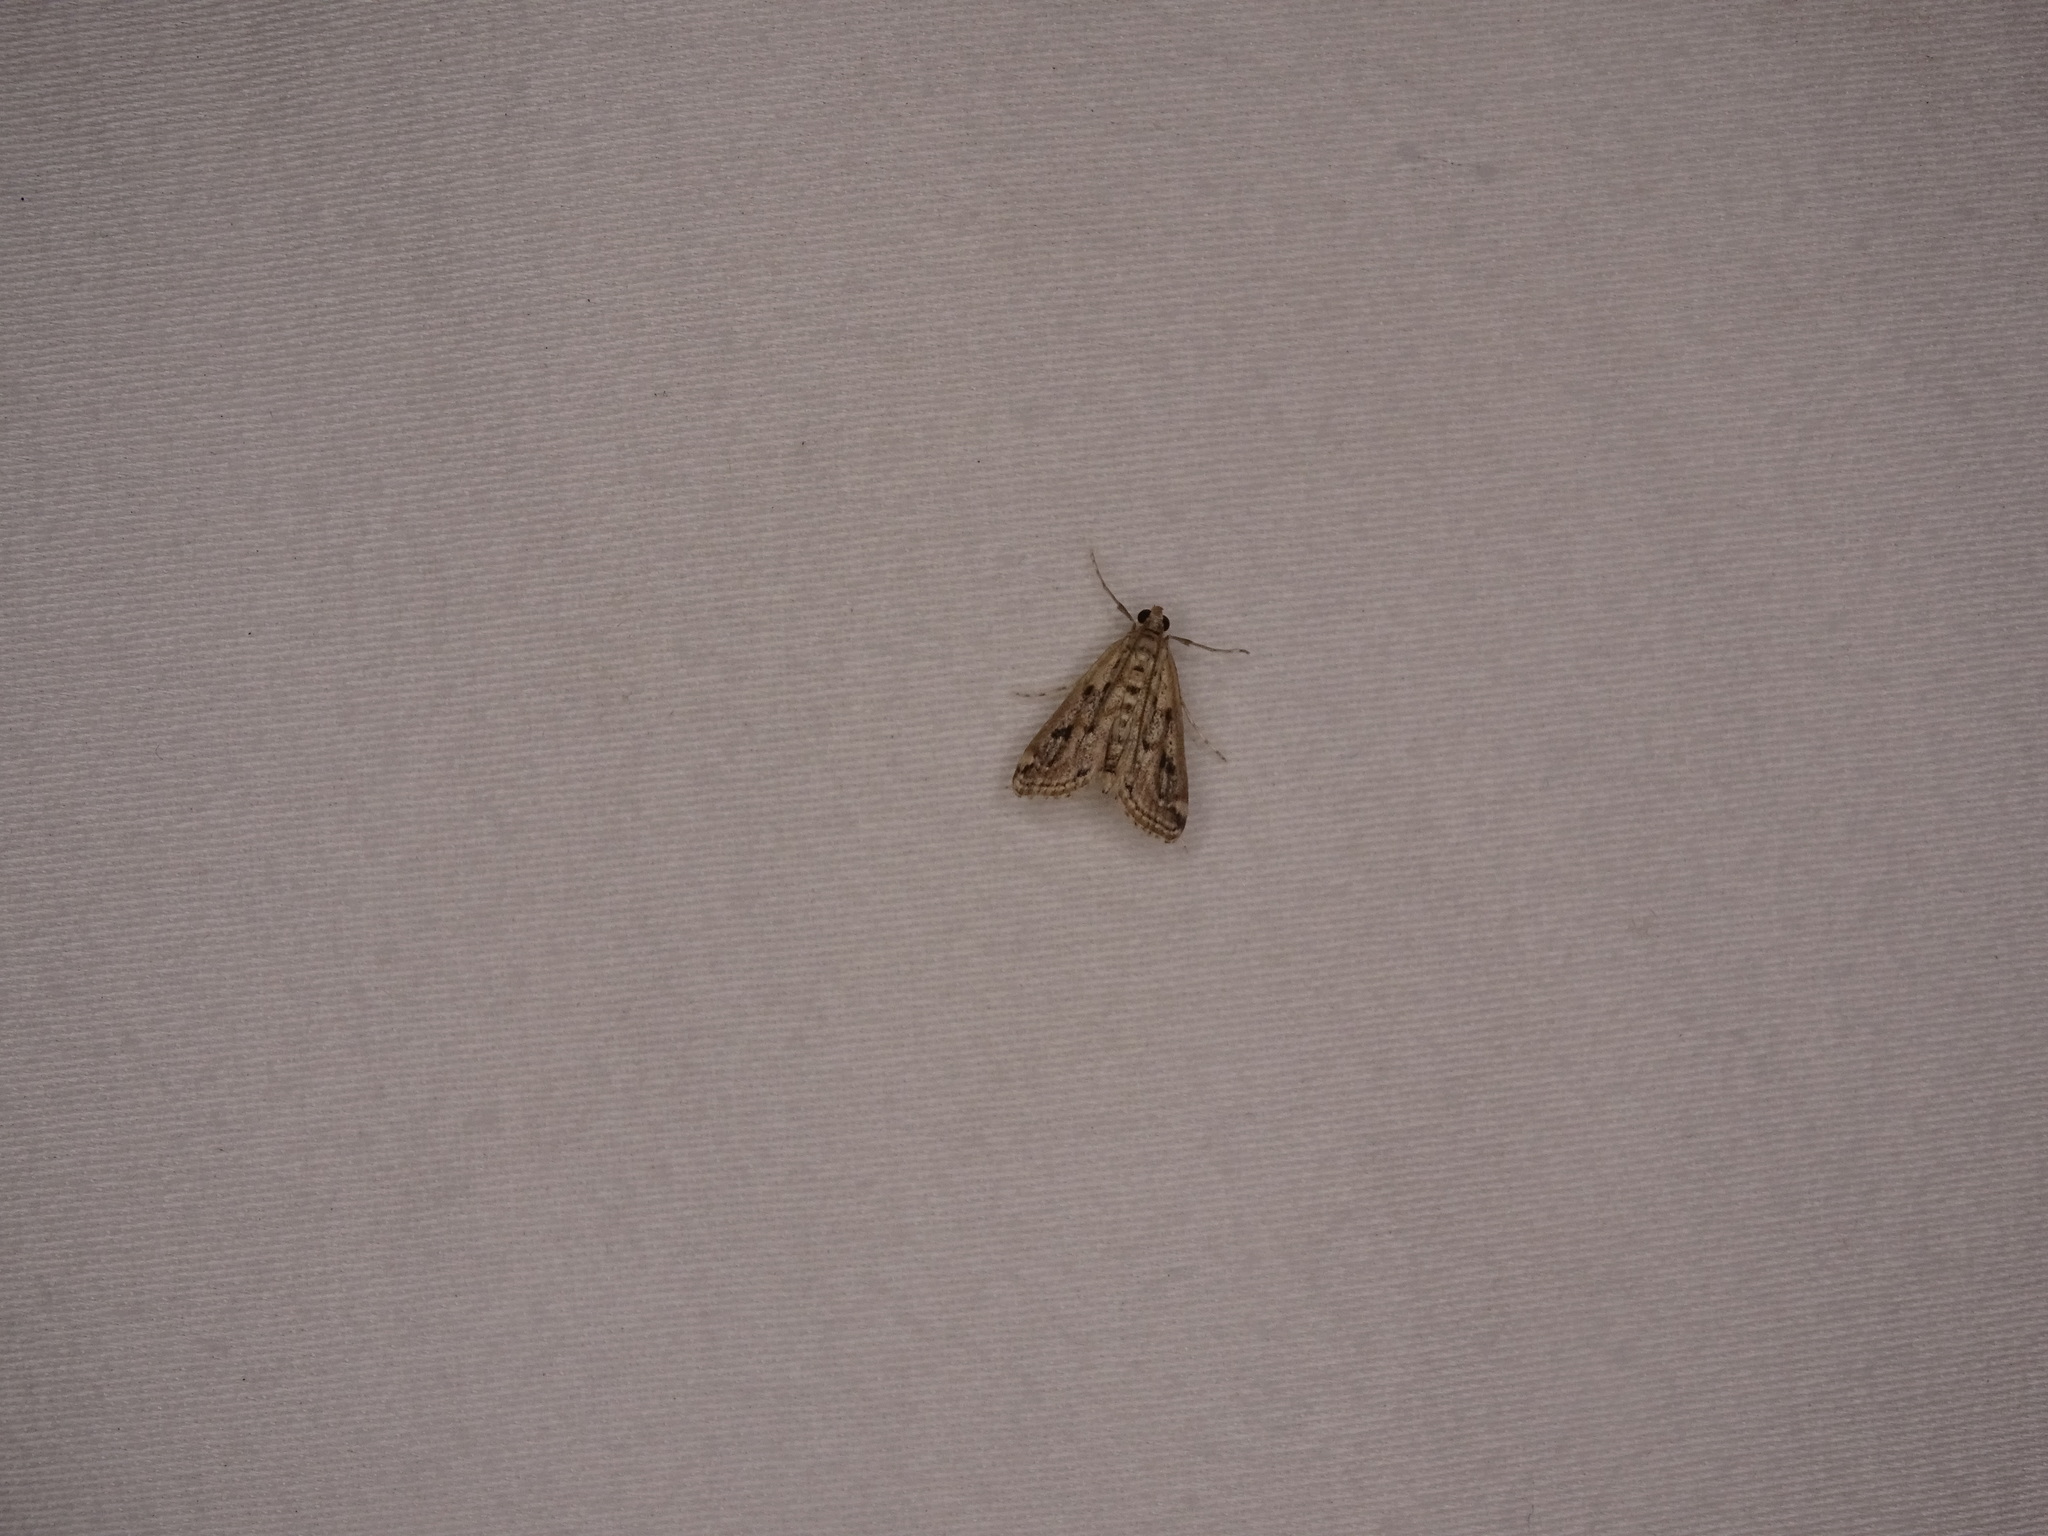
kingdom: Animalia
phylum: Arthropoda
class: Insecta
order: Lepidoptera
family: Crambidae
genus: Parapoynx
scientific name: Parapoynx allionealis
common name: Bladderwort casemaker
